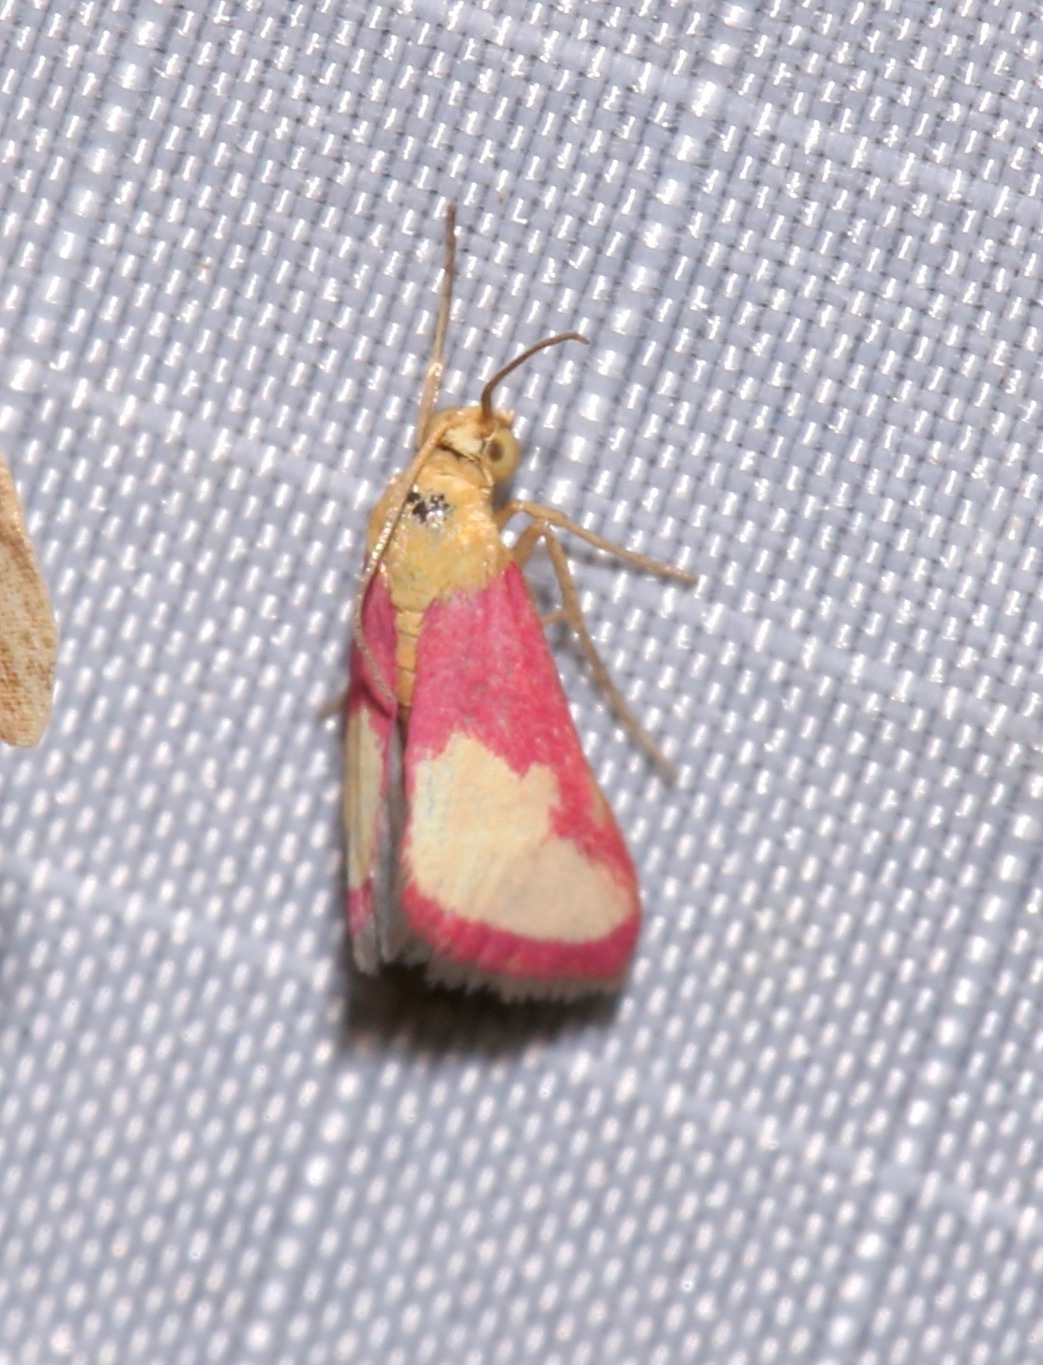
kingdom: Animalia
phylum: Arthropoda
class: Insecta
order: Lepidoptera
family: Crambidae
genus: Mojavia
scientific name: Mojavia achemonalis
